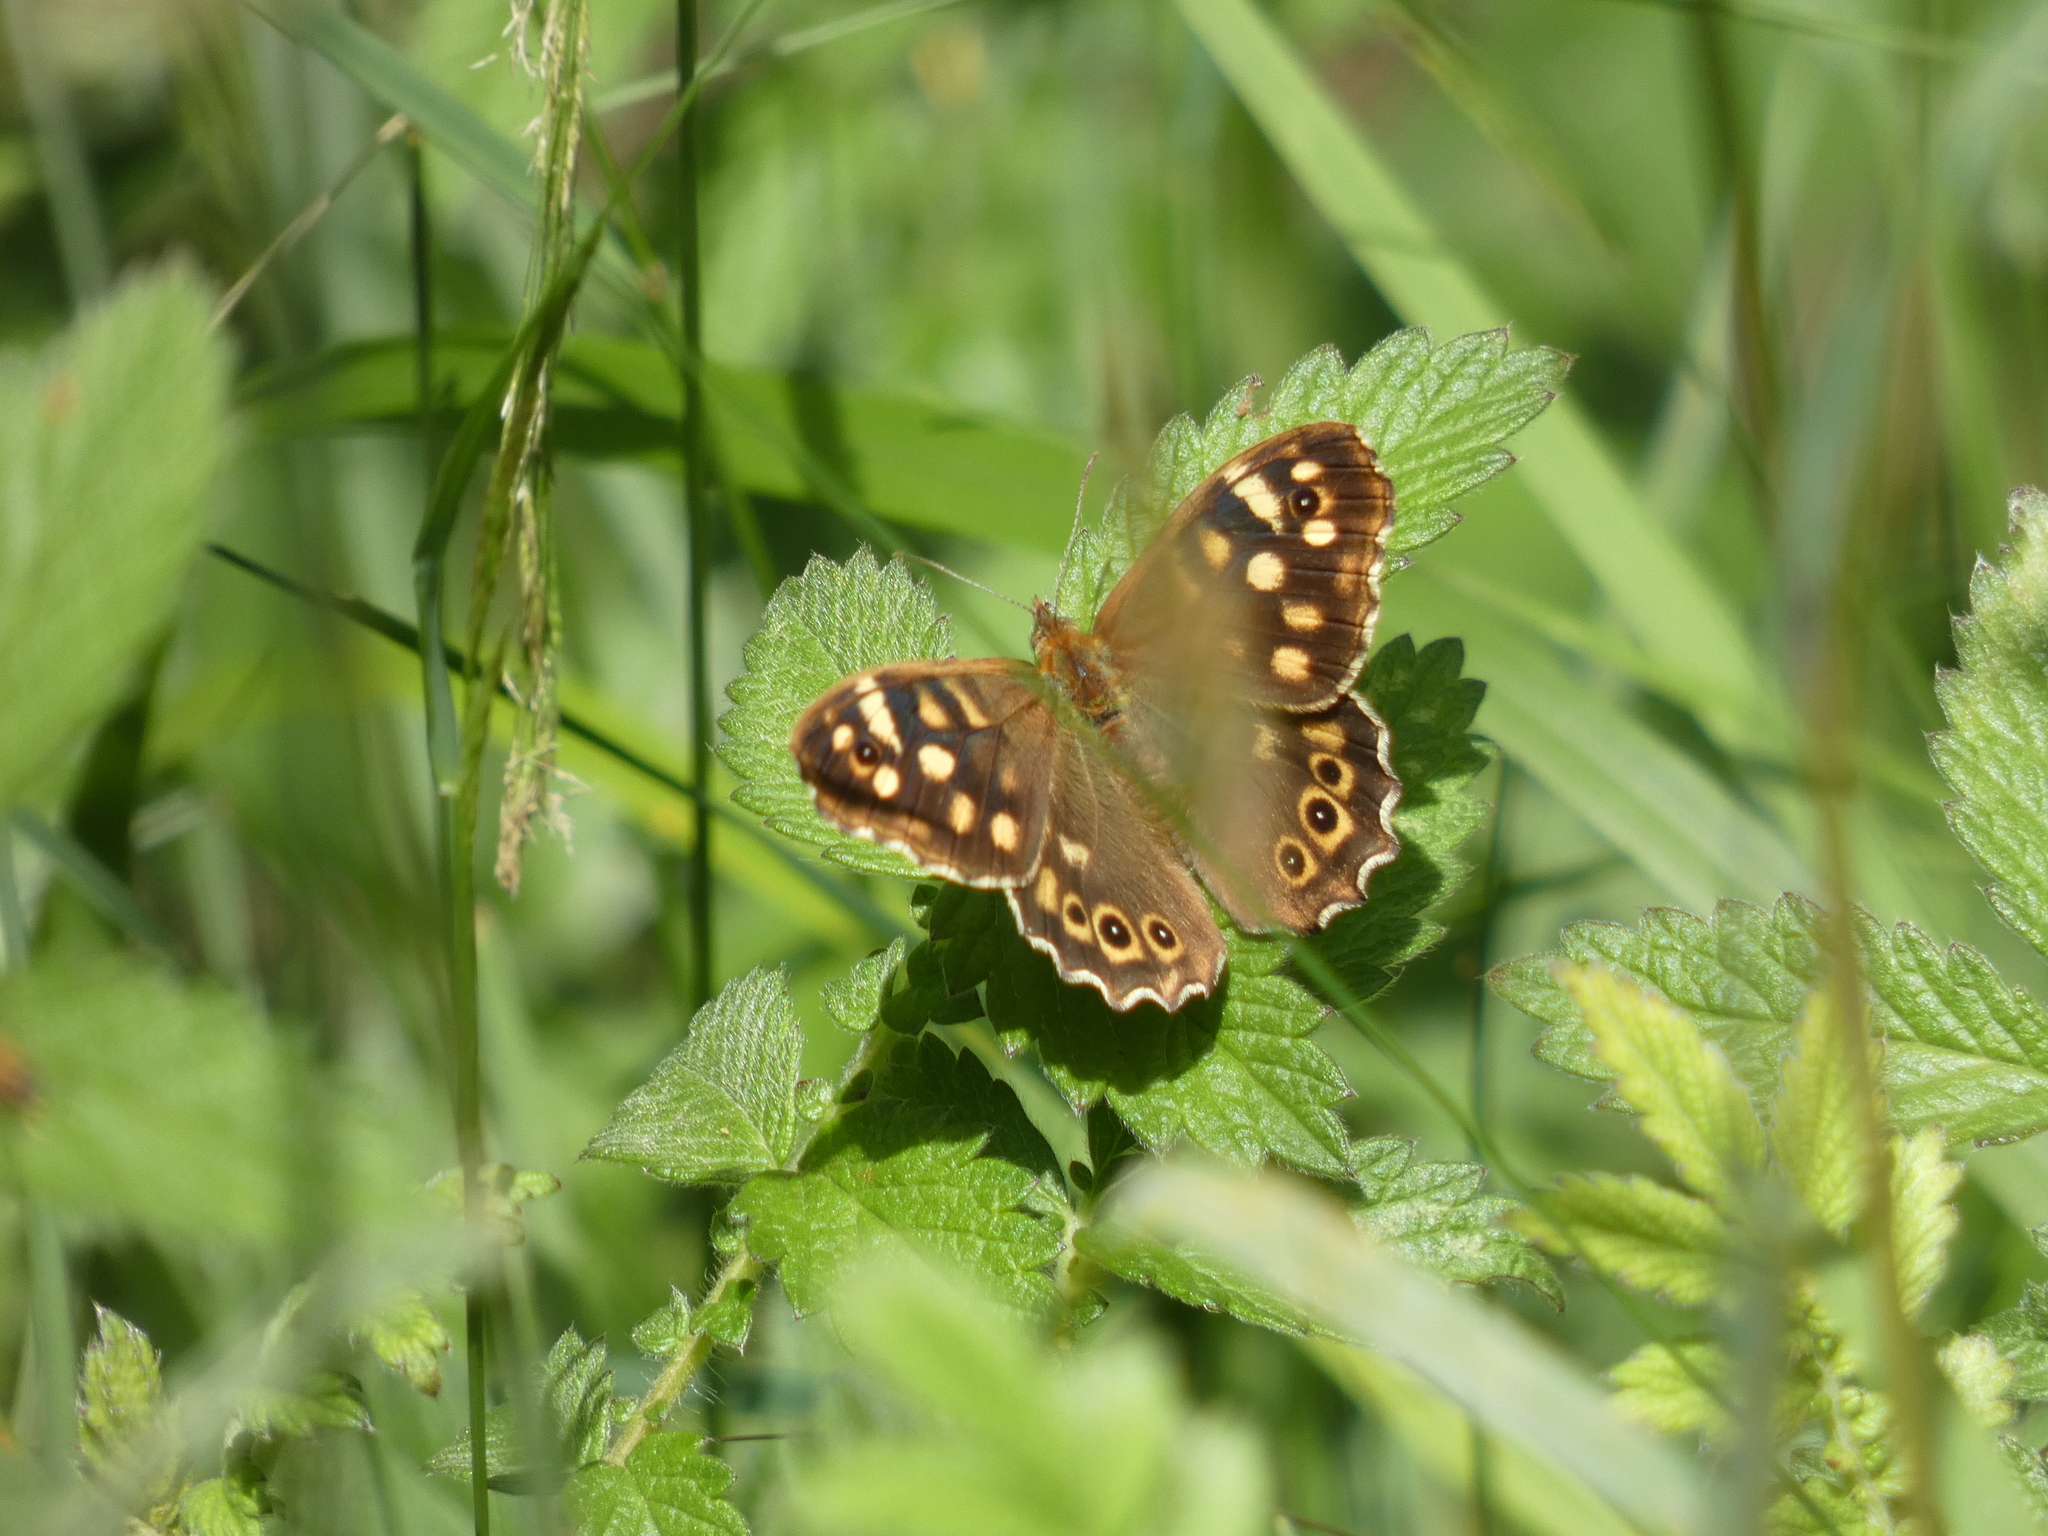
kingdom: Animalia
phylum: Arthropoda
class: Insecta
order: Lepidoptera
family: Nymphalidae
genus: Pararge
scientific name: Pararge aegeria
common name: Speckled wood
